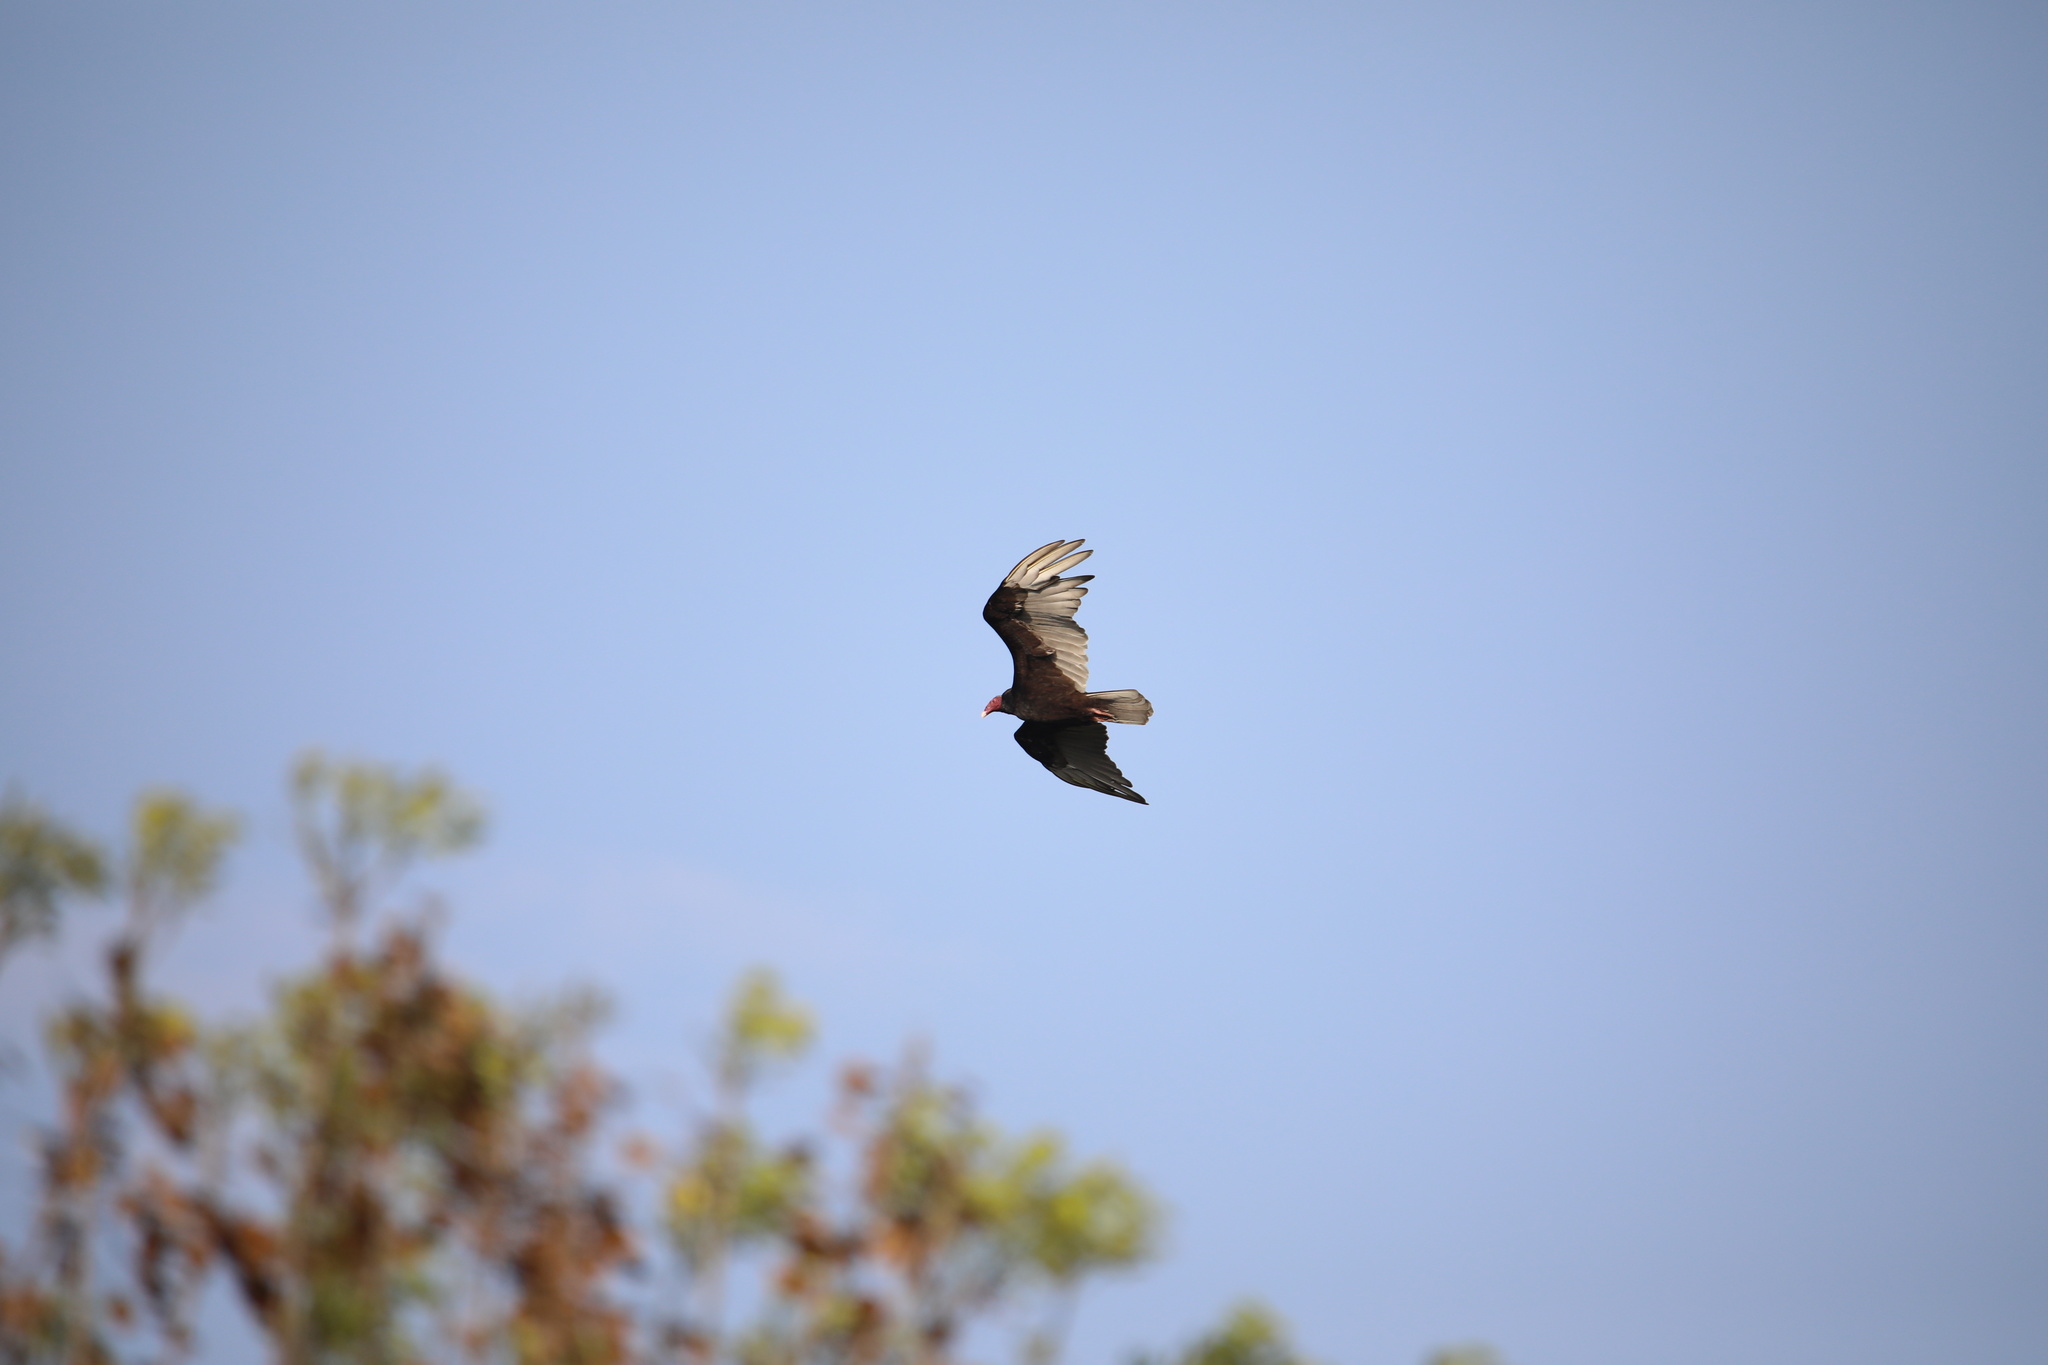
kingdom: Animalia
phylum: Chordata
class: Aves
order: Accipitriformes
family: Cathartidae
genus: Cathartes
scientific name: Cathartes aura
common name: Turkey vulture
